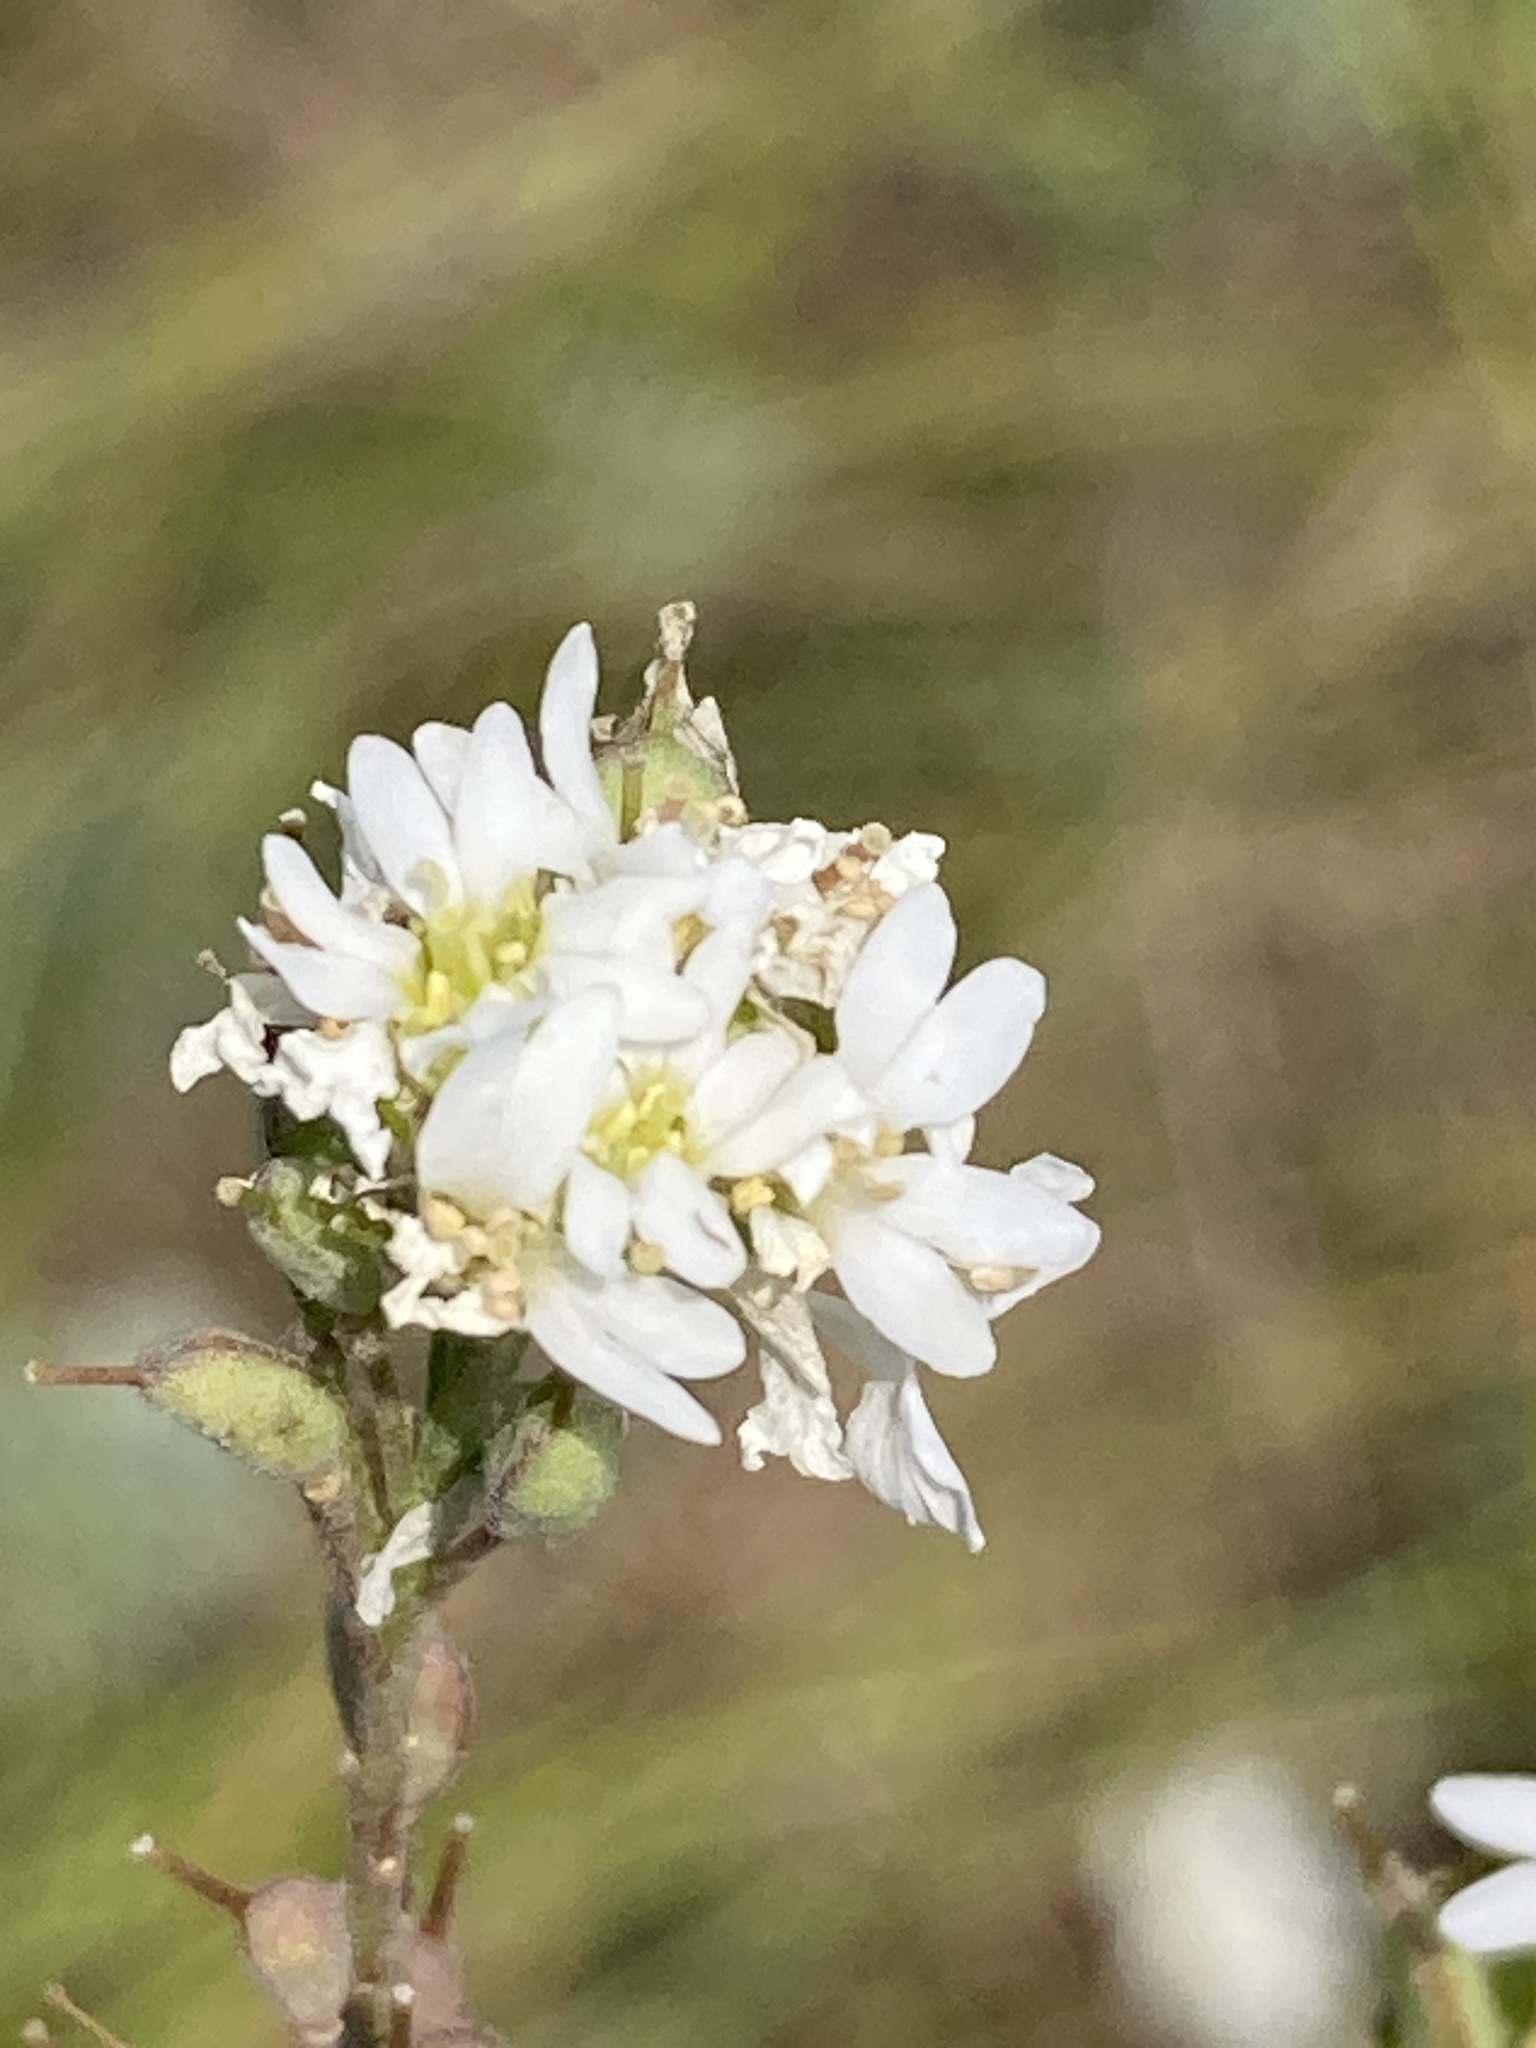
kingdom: Plantae
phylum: Tracheophyta
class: Magnoliopsida
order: Brassicales
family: Brassicaceae
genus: Berteroa
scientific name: Berteroa incana
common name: Hoary alison
